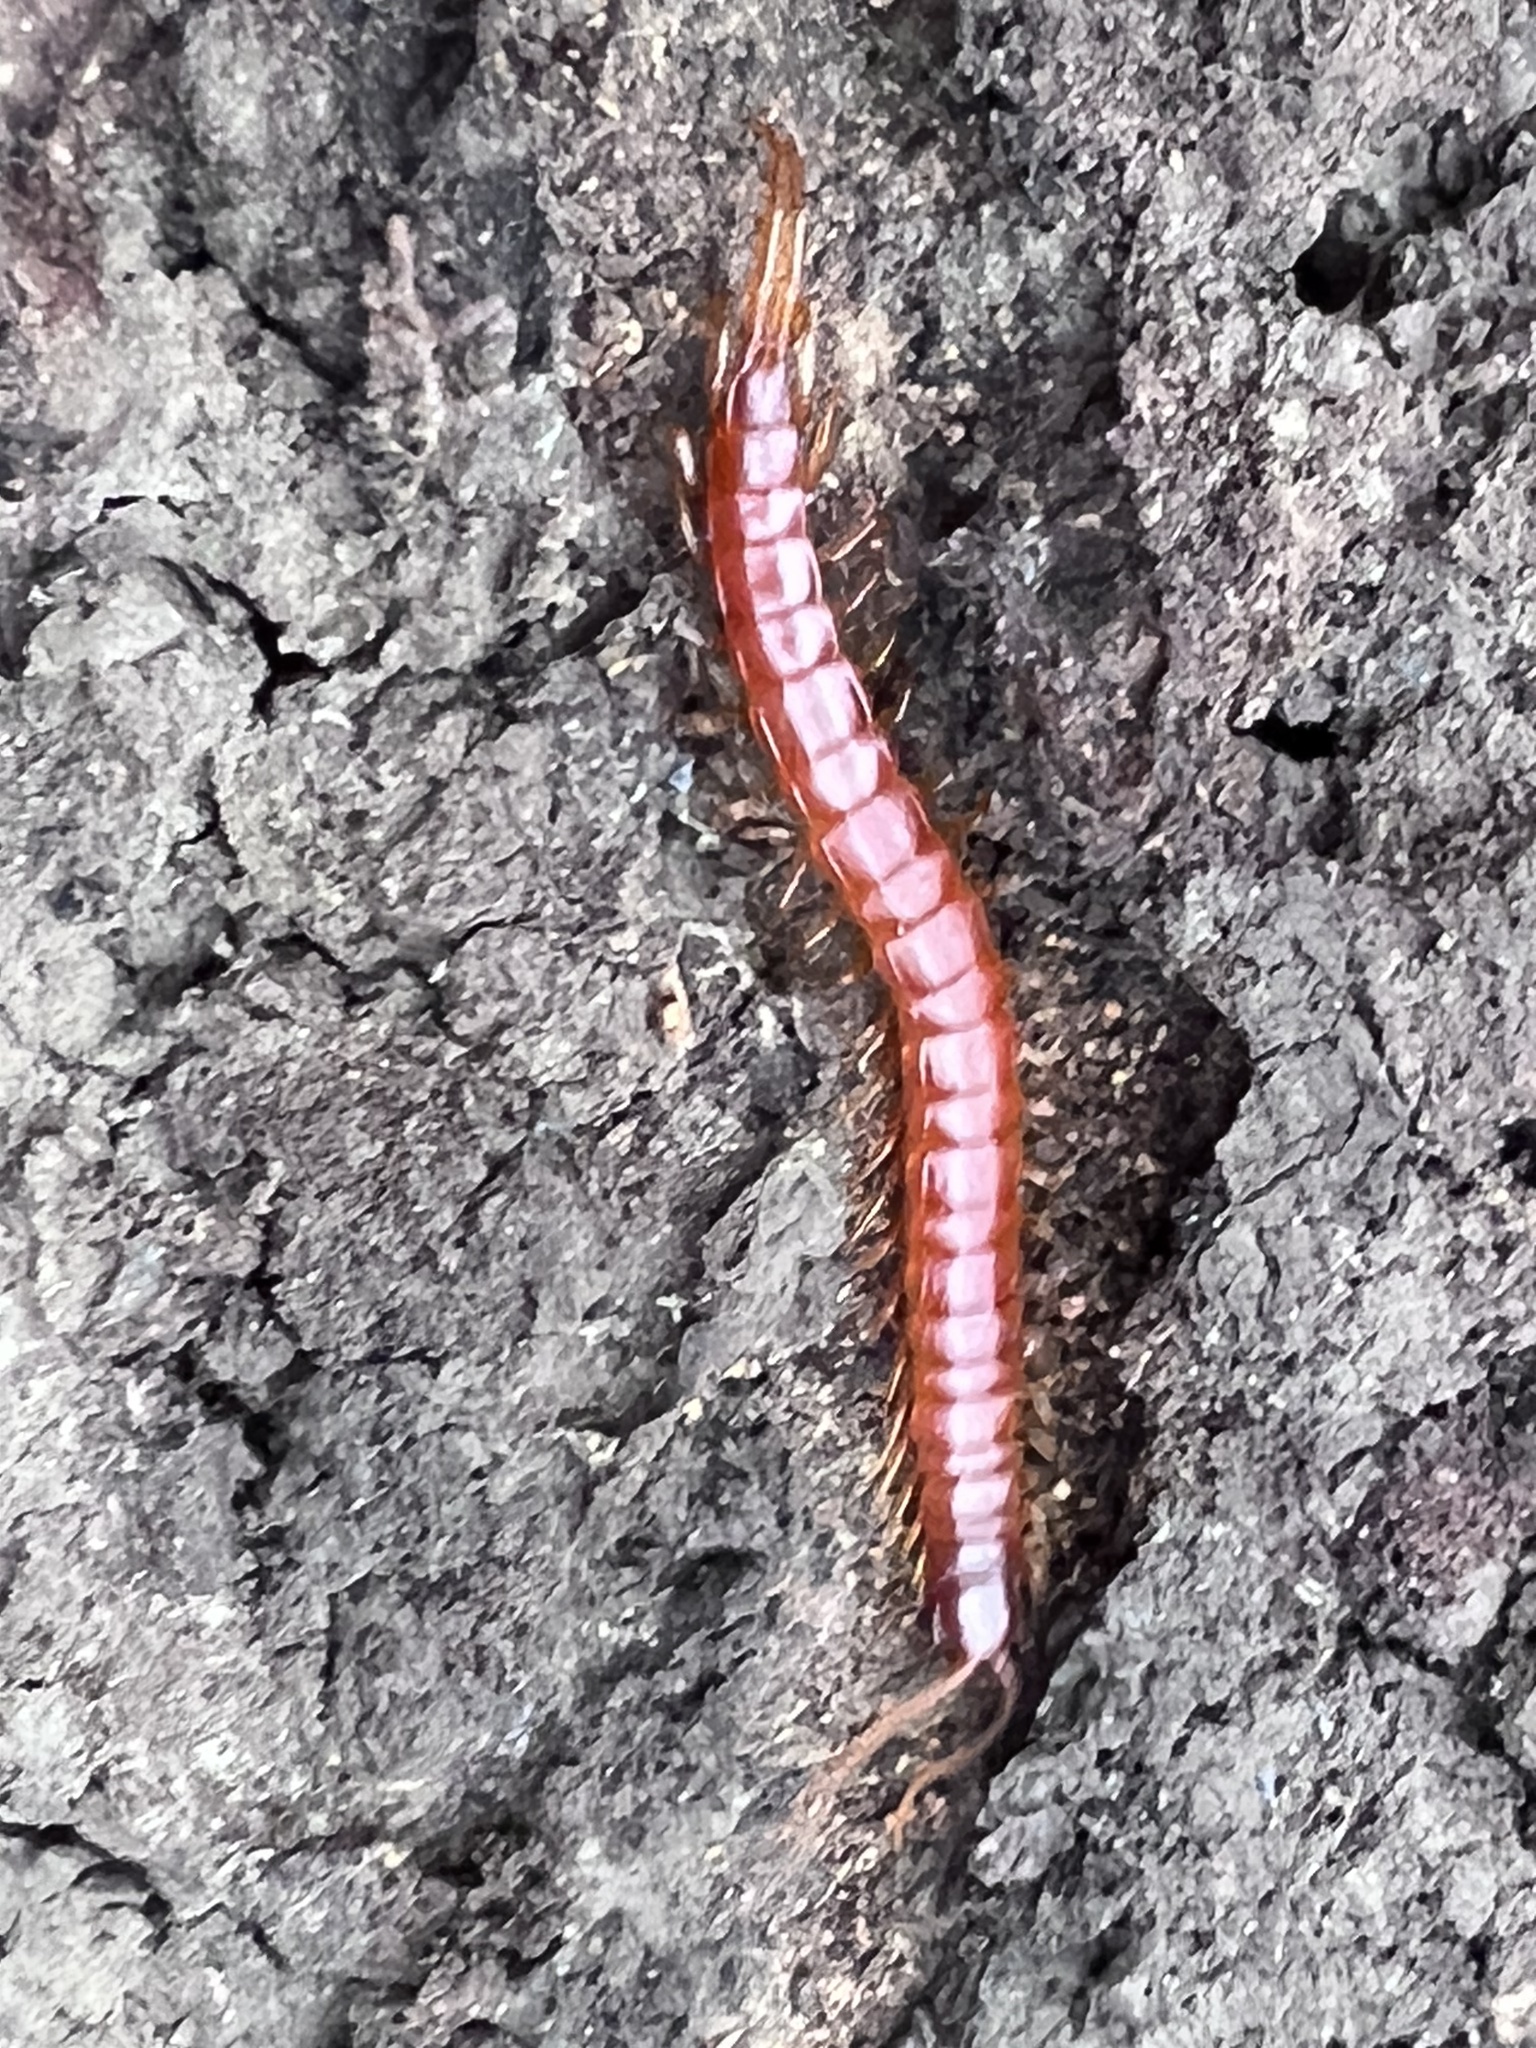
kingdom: Animalia
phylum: Arthropoda
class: Chilopoda
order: Scolopendromorpha
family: Scolopocryptopidae
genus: Scolopocryptops
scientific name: Scolopocryptops sexspinosus
